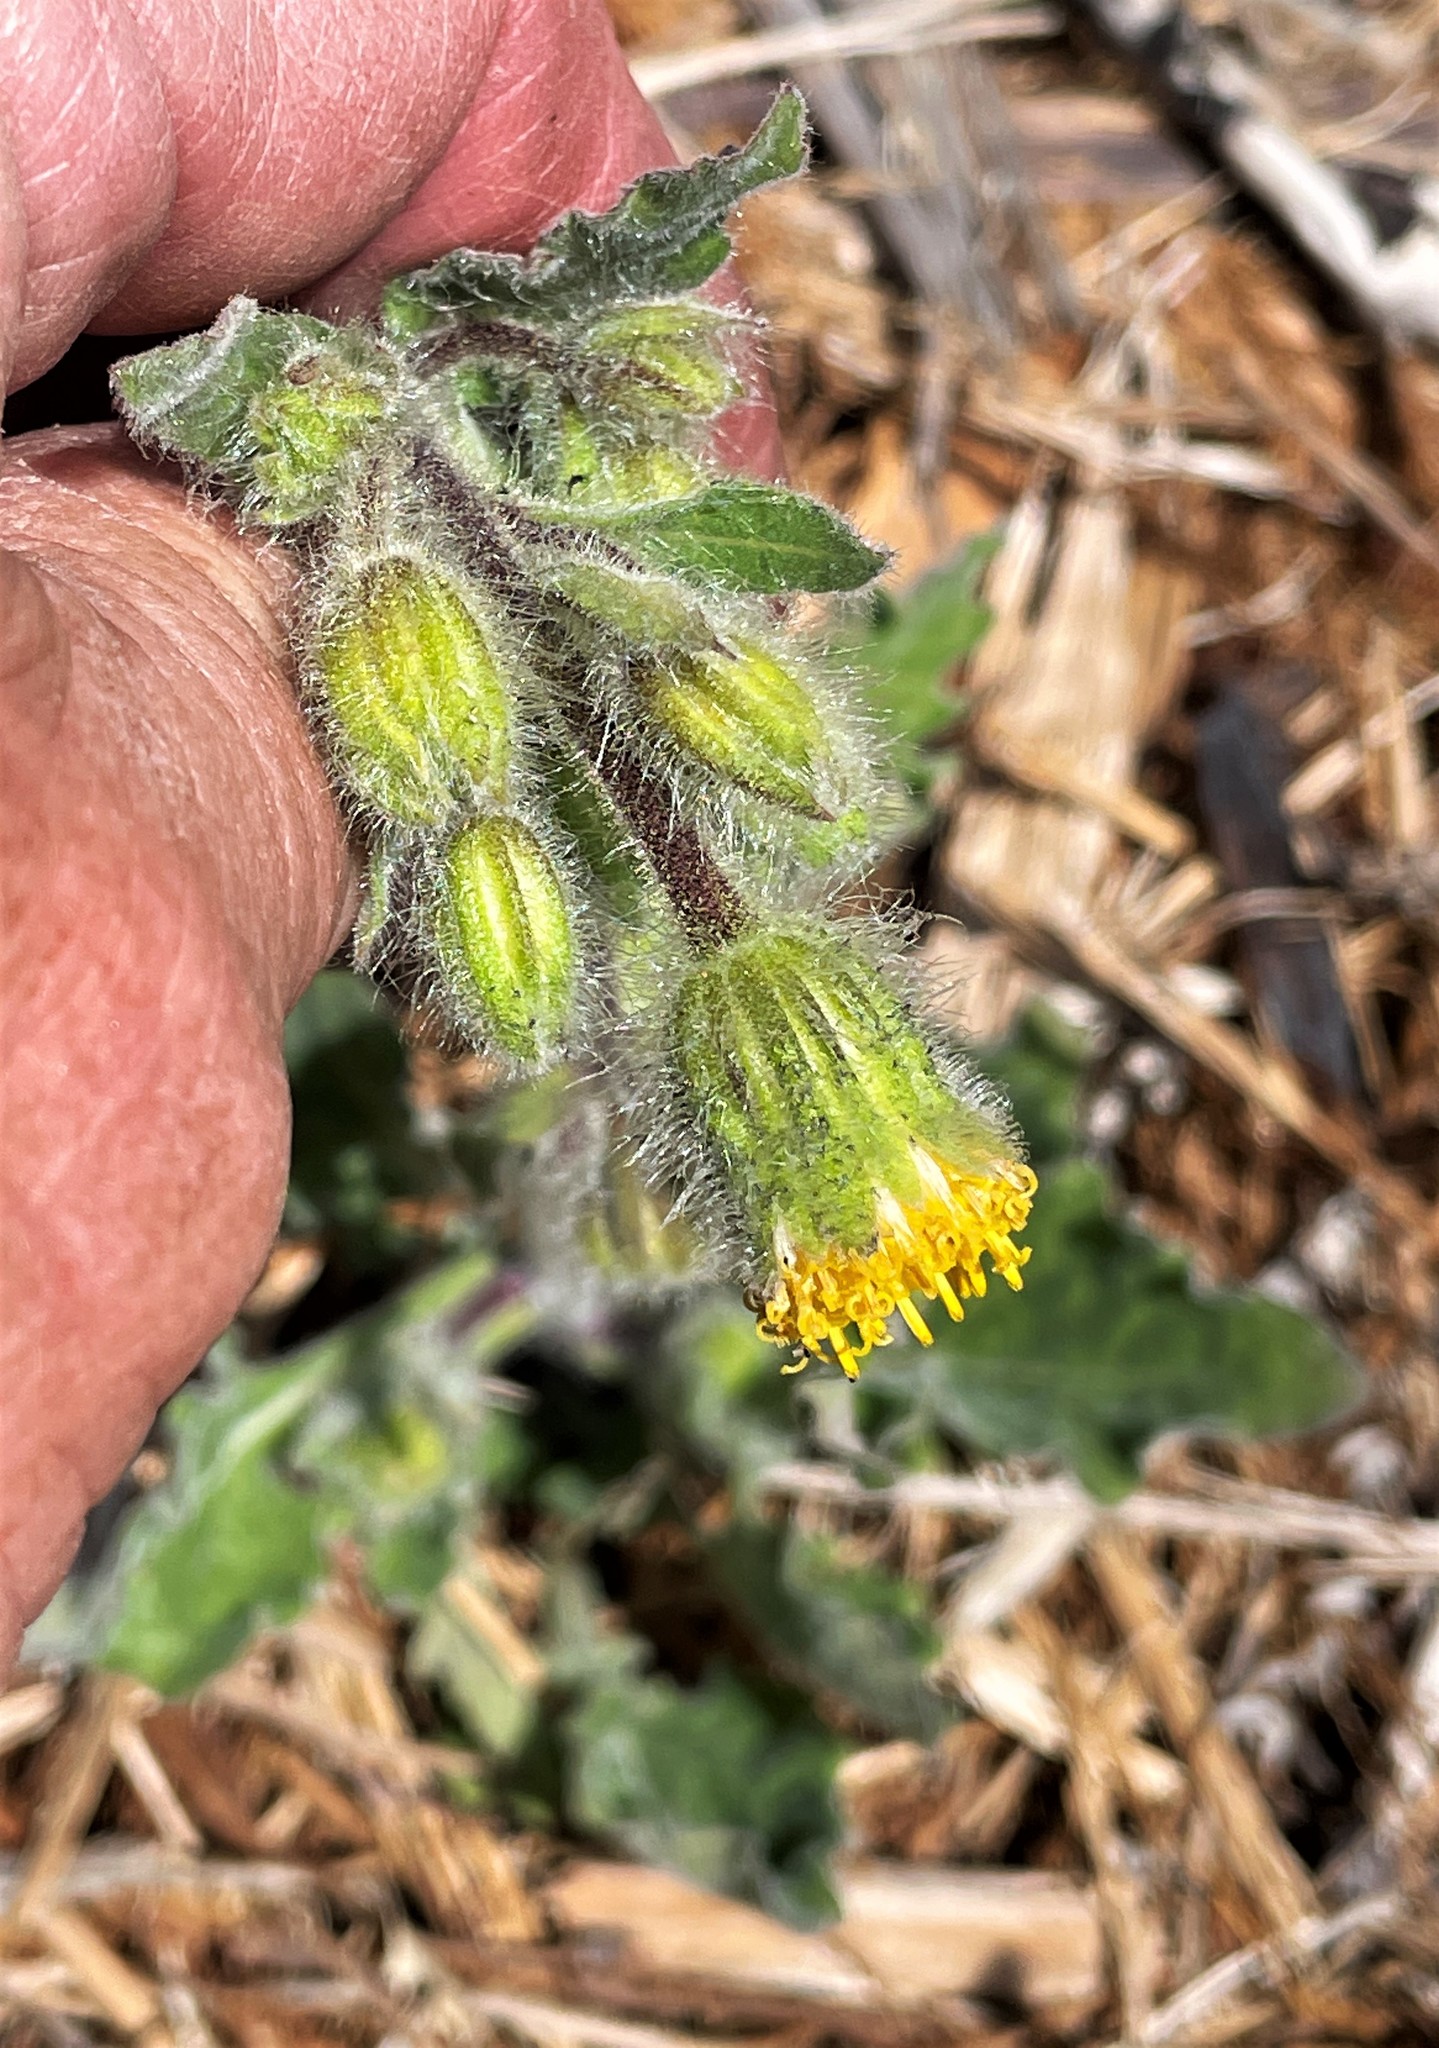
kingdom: Plantae
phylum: Tracheophyta
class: Magnoliopsida
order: Asterales
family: Asteraceae
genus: Arnica
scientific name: Arnica discoidea
